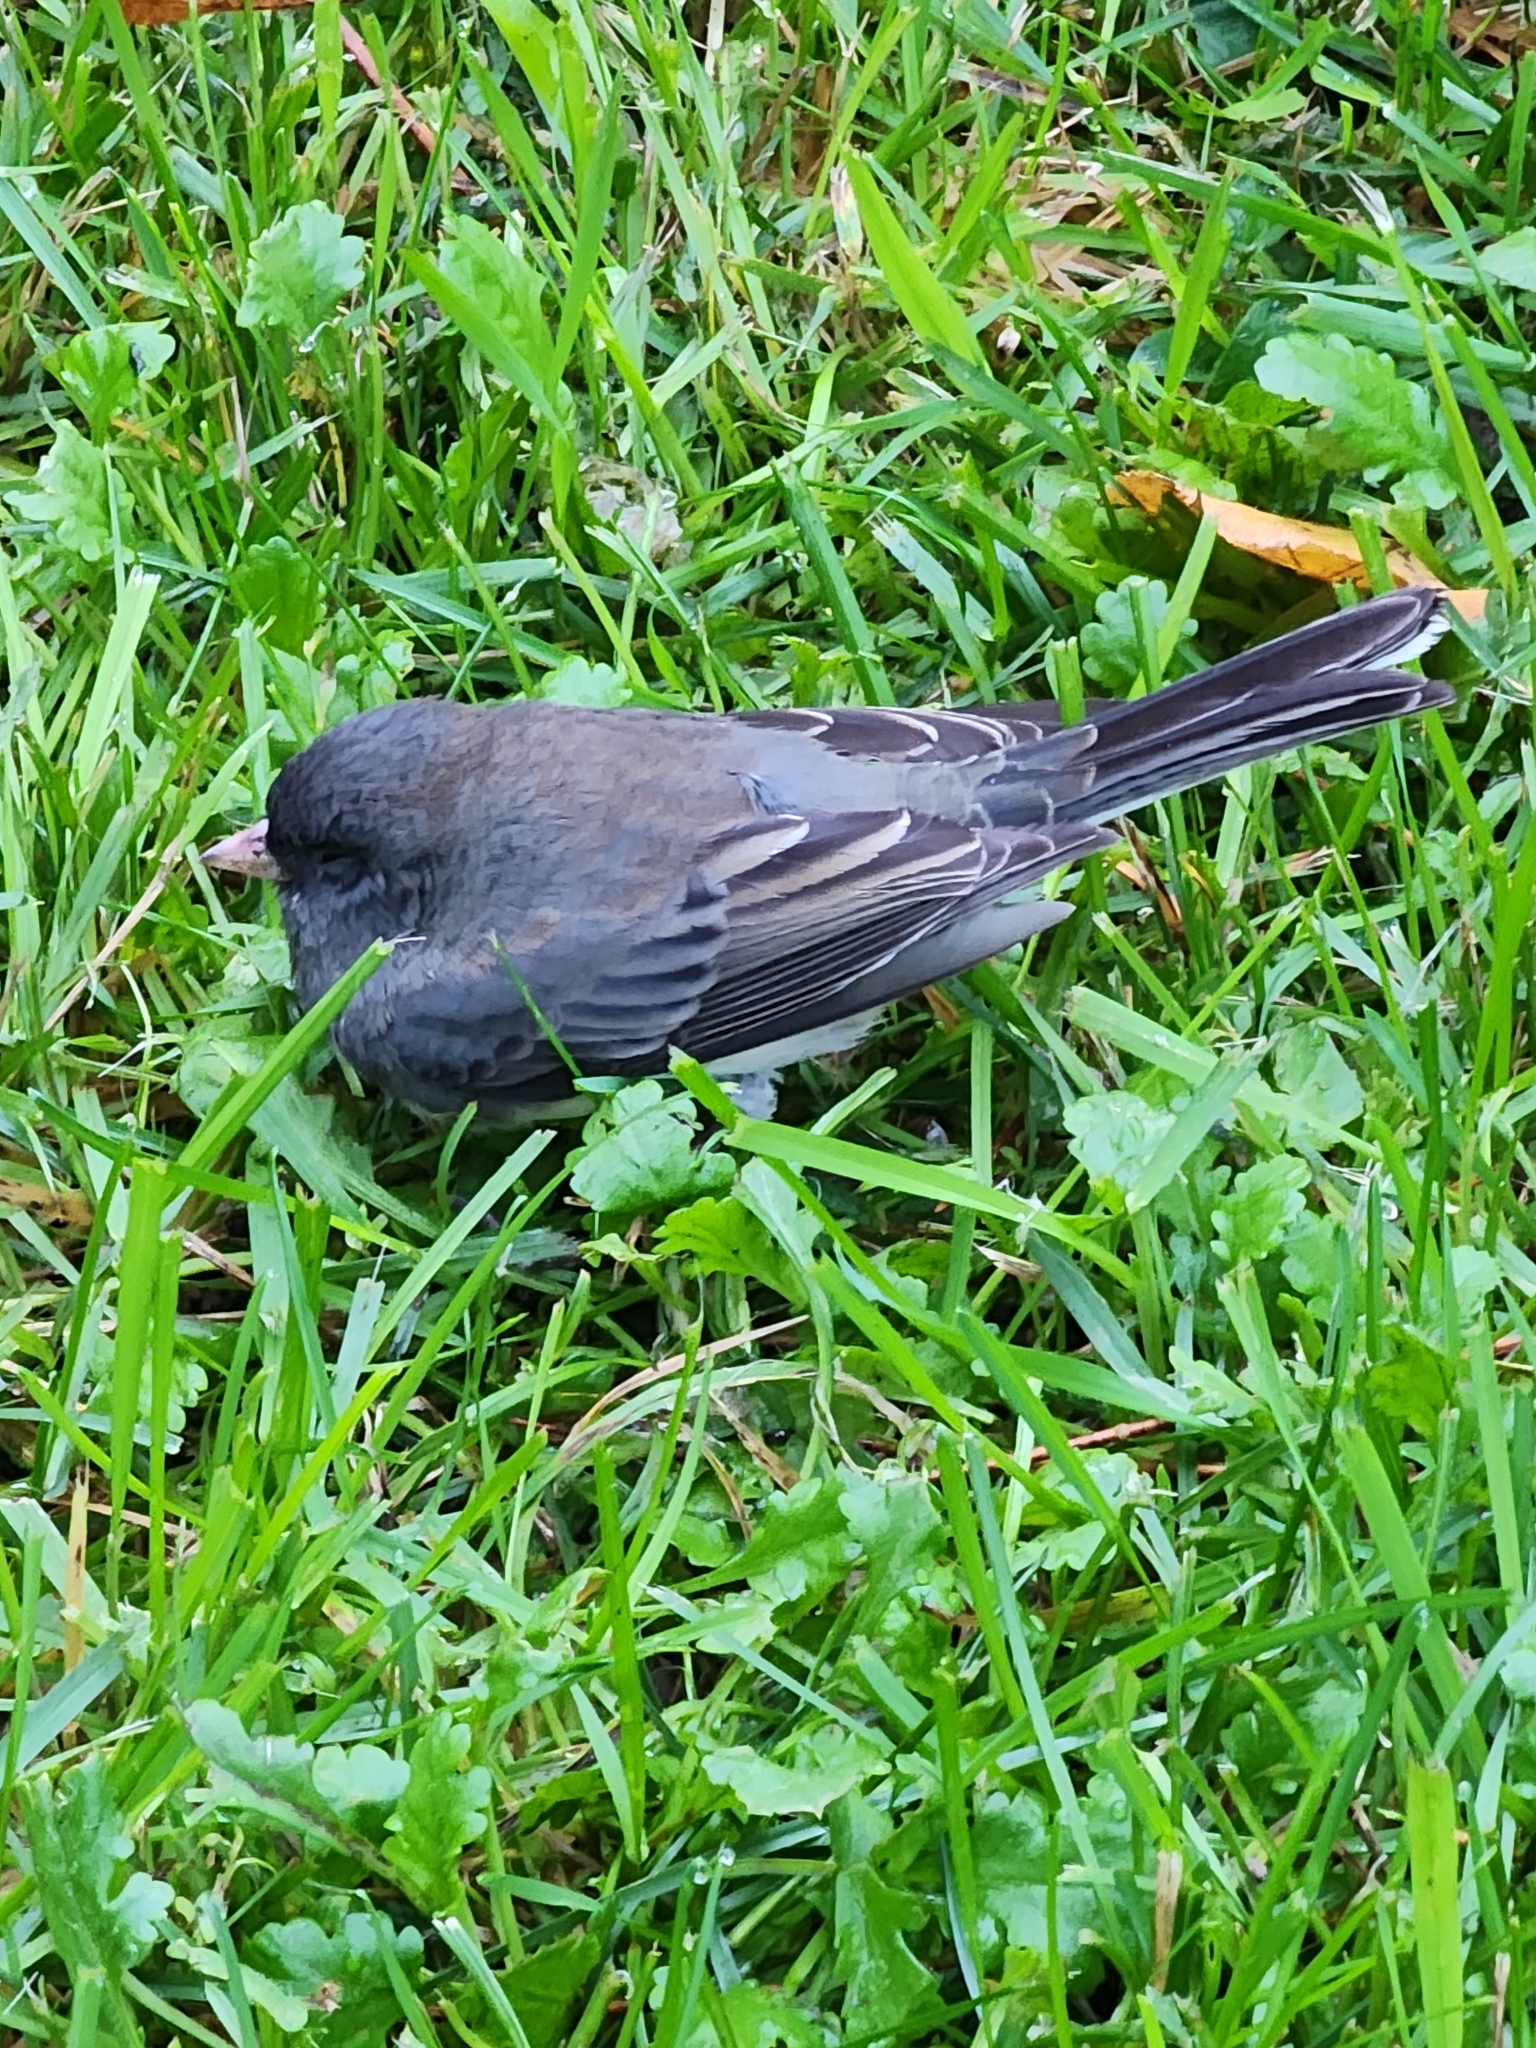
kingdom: Animalia
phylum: Chordata
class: Aves
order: Passeriformes
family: Passerellidae
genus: Junco
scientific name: Junco hyemalis
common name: Dark-eyed junco
